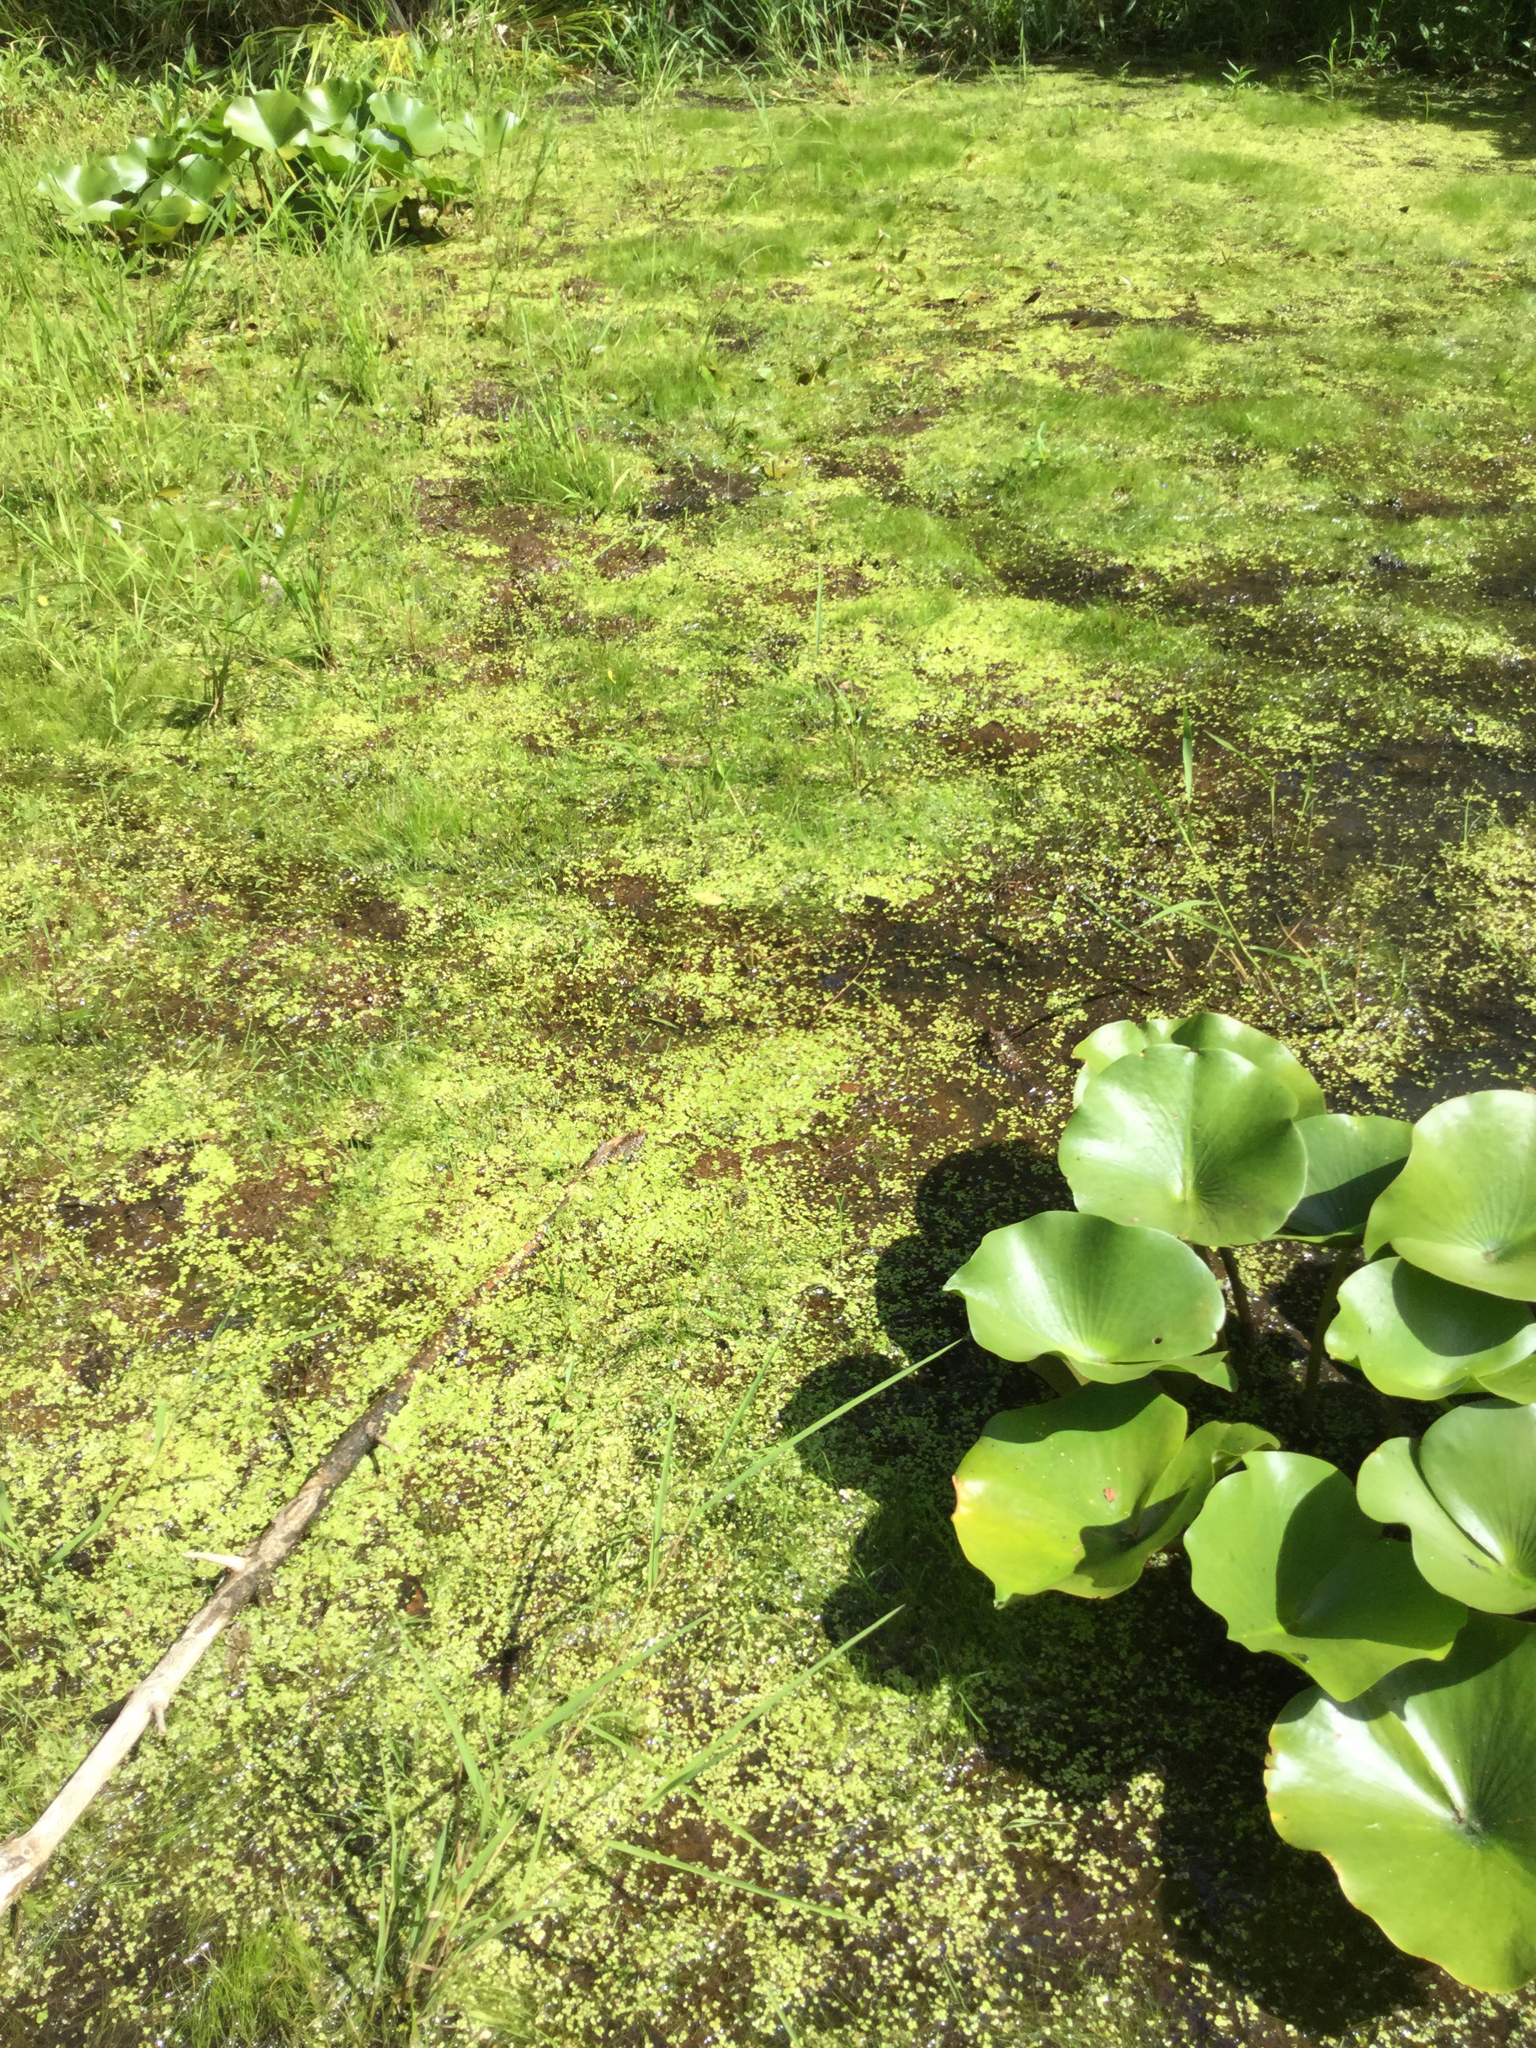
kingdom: Plantae
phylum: Tracheophyta
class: Liliopsida
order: Poales
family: Cyperaceae
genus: Eleocharis
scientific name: Eleocharis intermedia
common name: Intermediate spikerush
